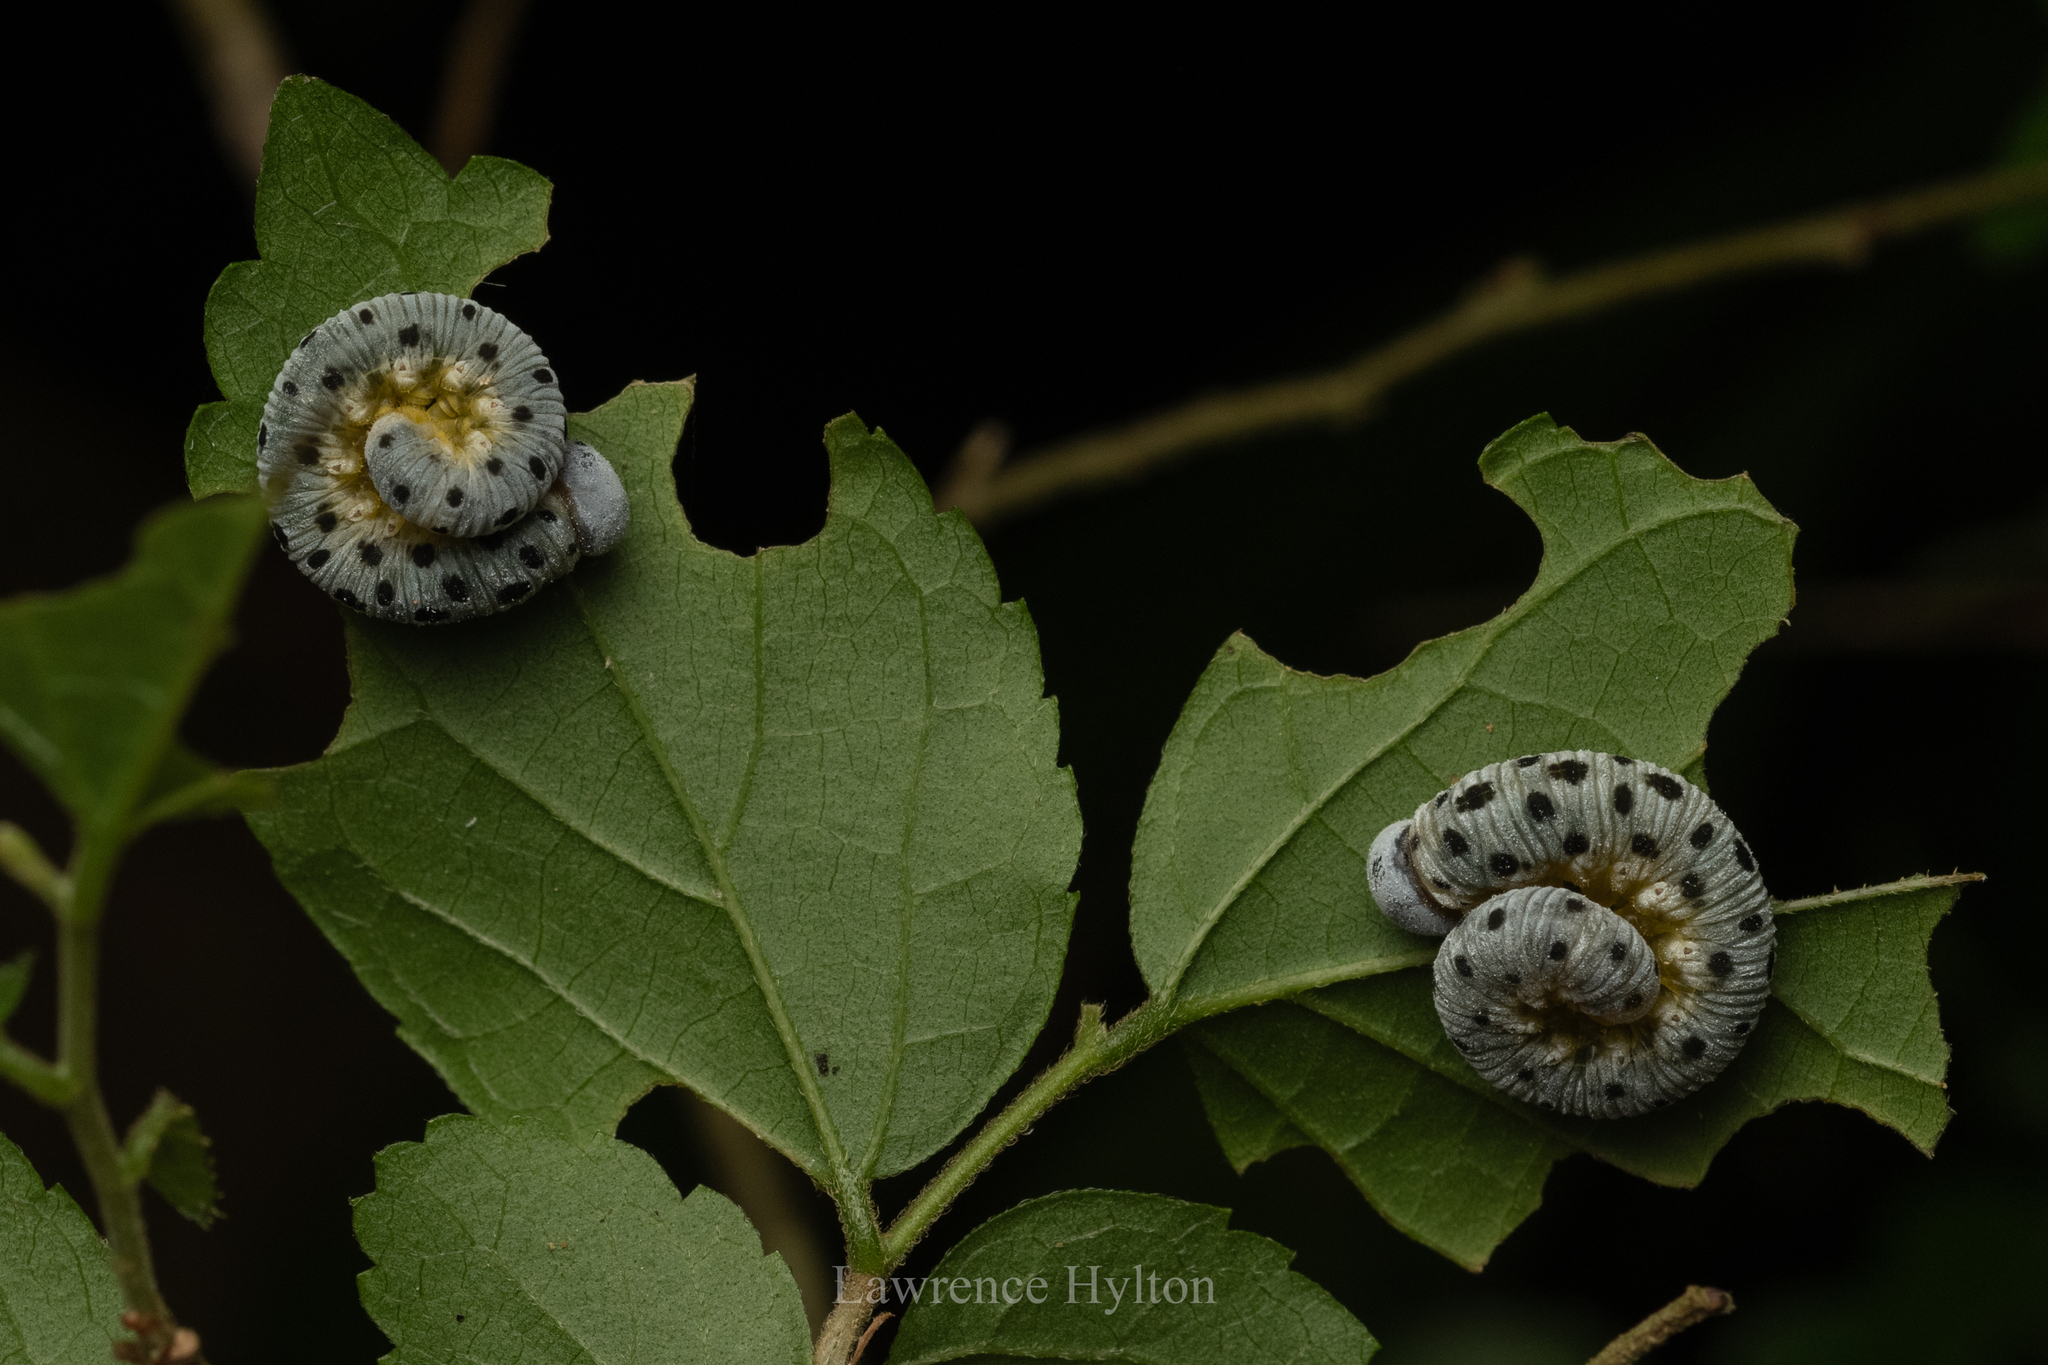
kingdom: Animalia
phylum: Arthropoda
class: Insecta
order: Hymenoptera
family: Cimbicidae
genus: Agenocimbex
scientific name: Agenocimbex
